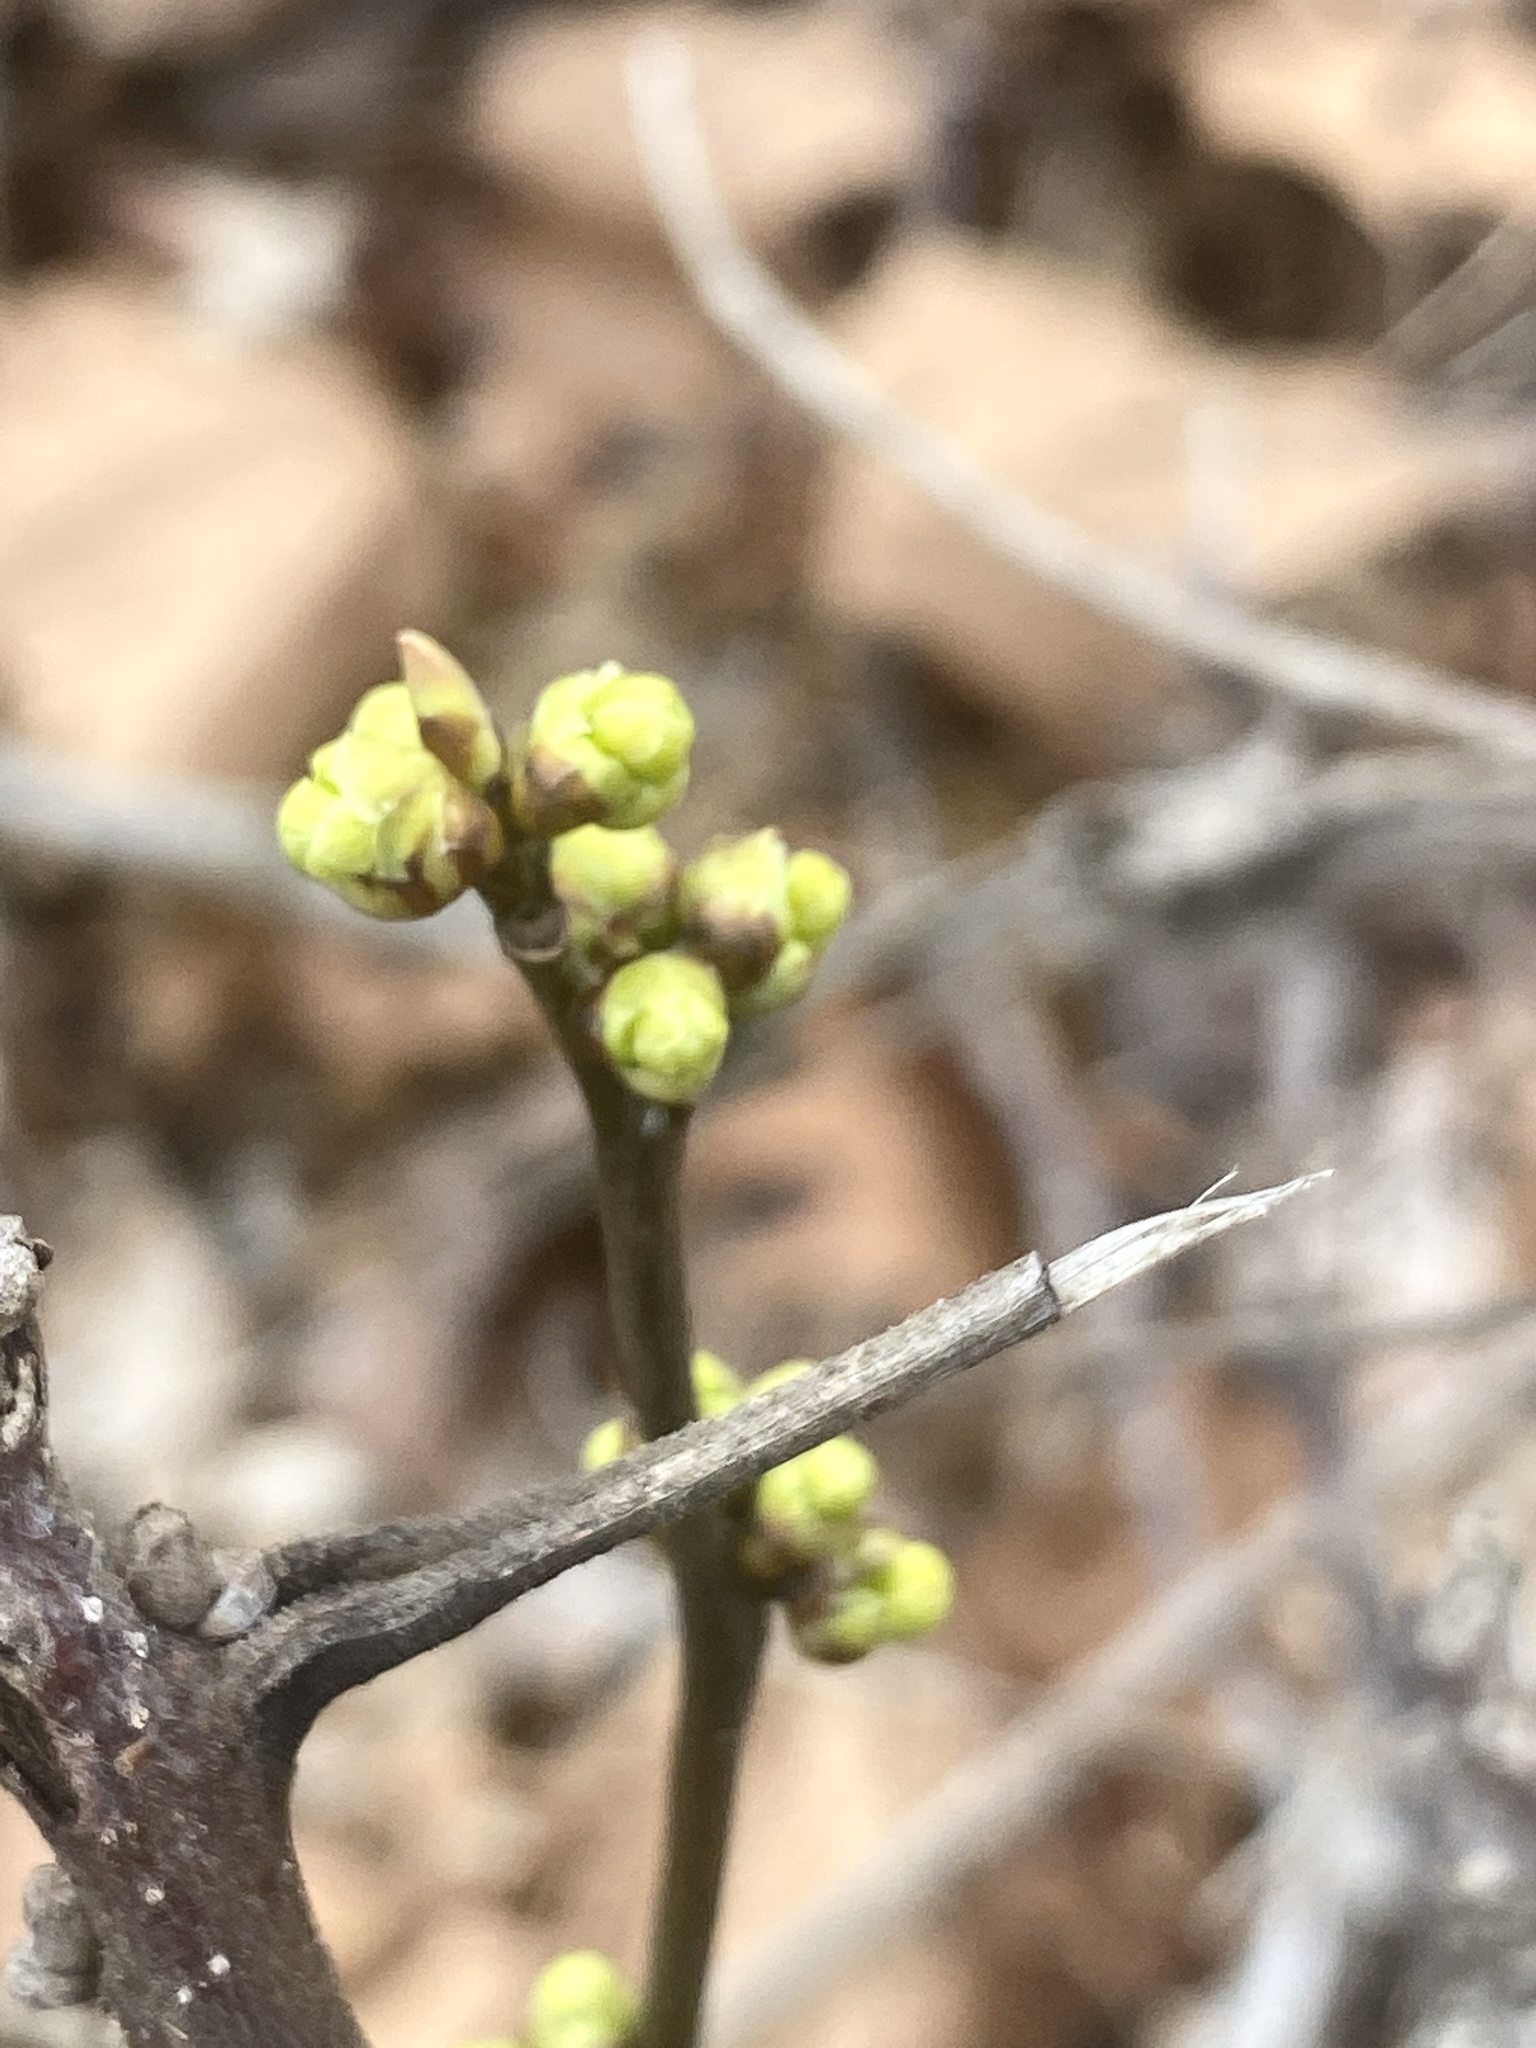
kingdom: Plantae
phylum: Tracheophyta
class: Magnoliopsida
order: Laurales
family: Lauraceae
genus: Lindera
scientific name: Lindera benzoin
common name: Spicebush
